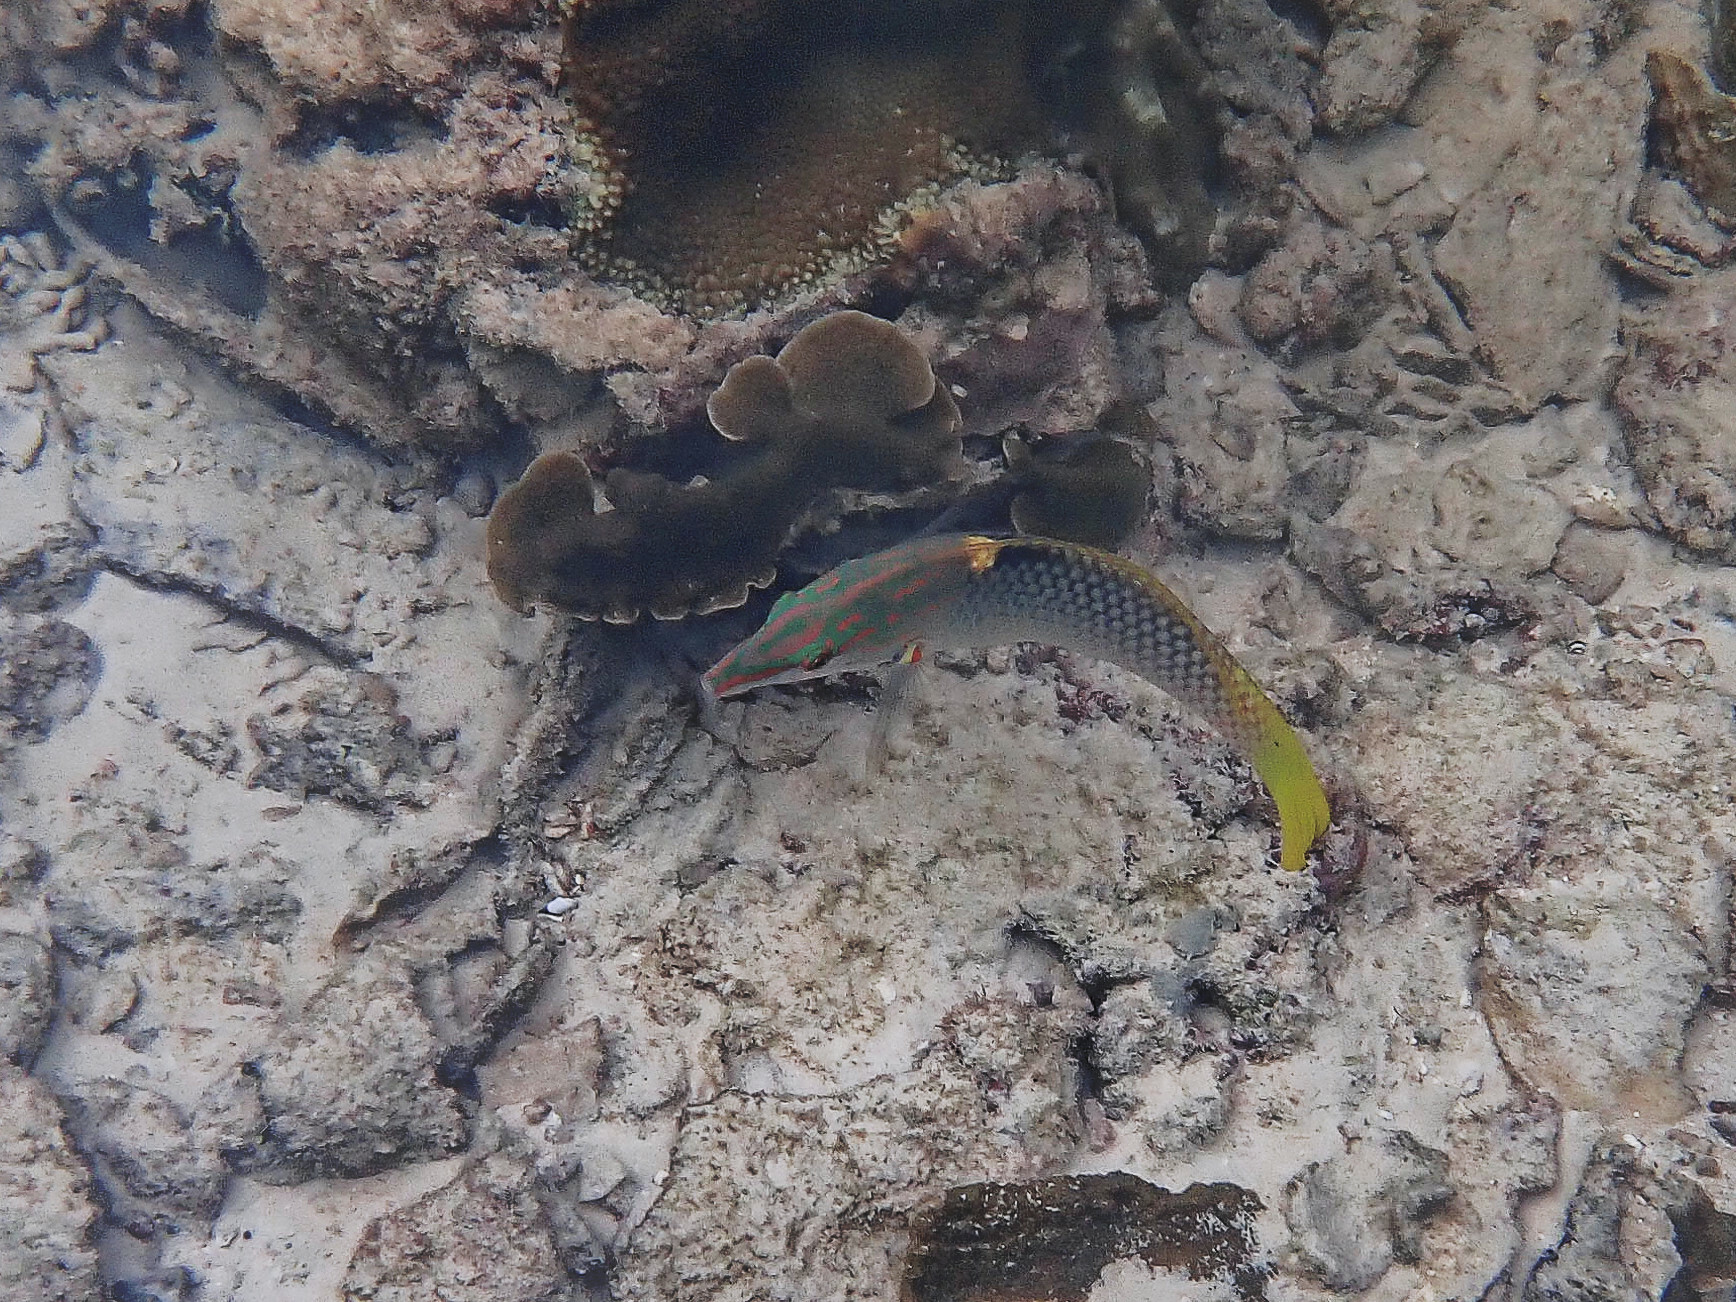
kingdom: Animalia
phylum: Chordata
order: Perciformes
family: Labridae
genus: Halichoeres
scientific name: Halichoeres hortulanus
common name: Checkerboard wrasse
